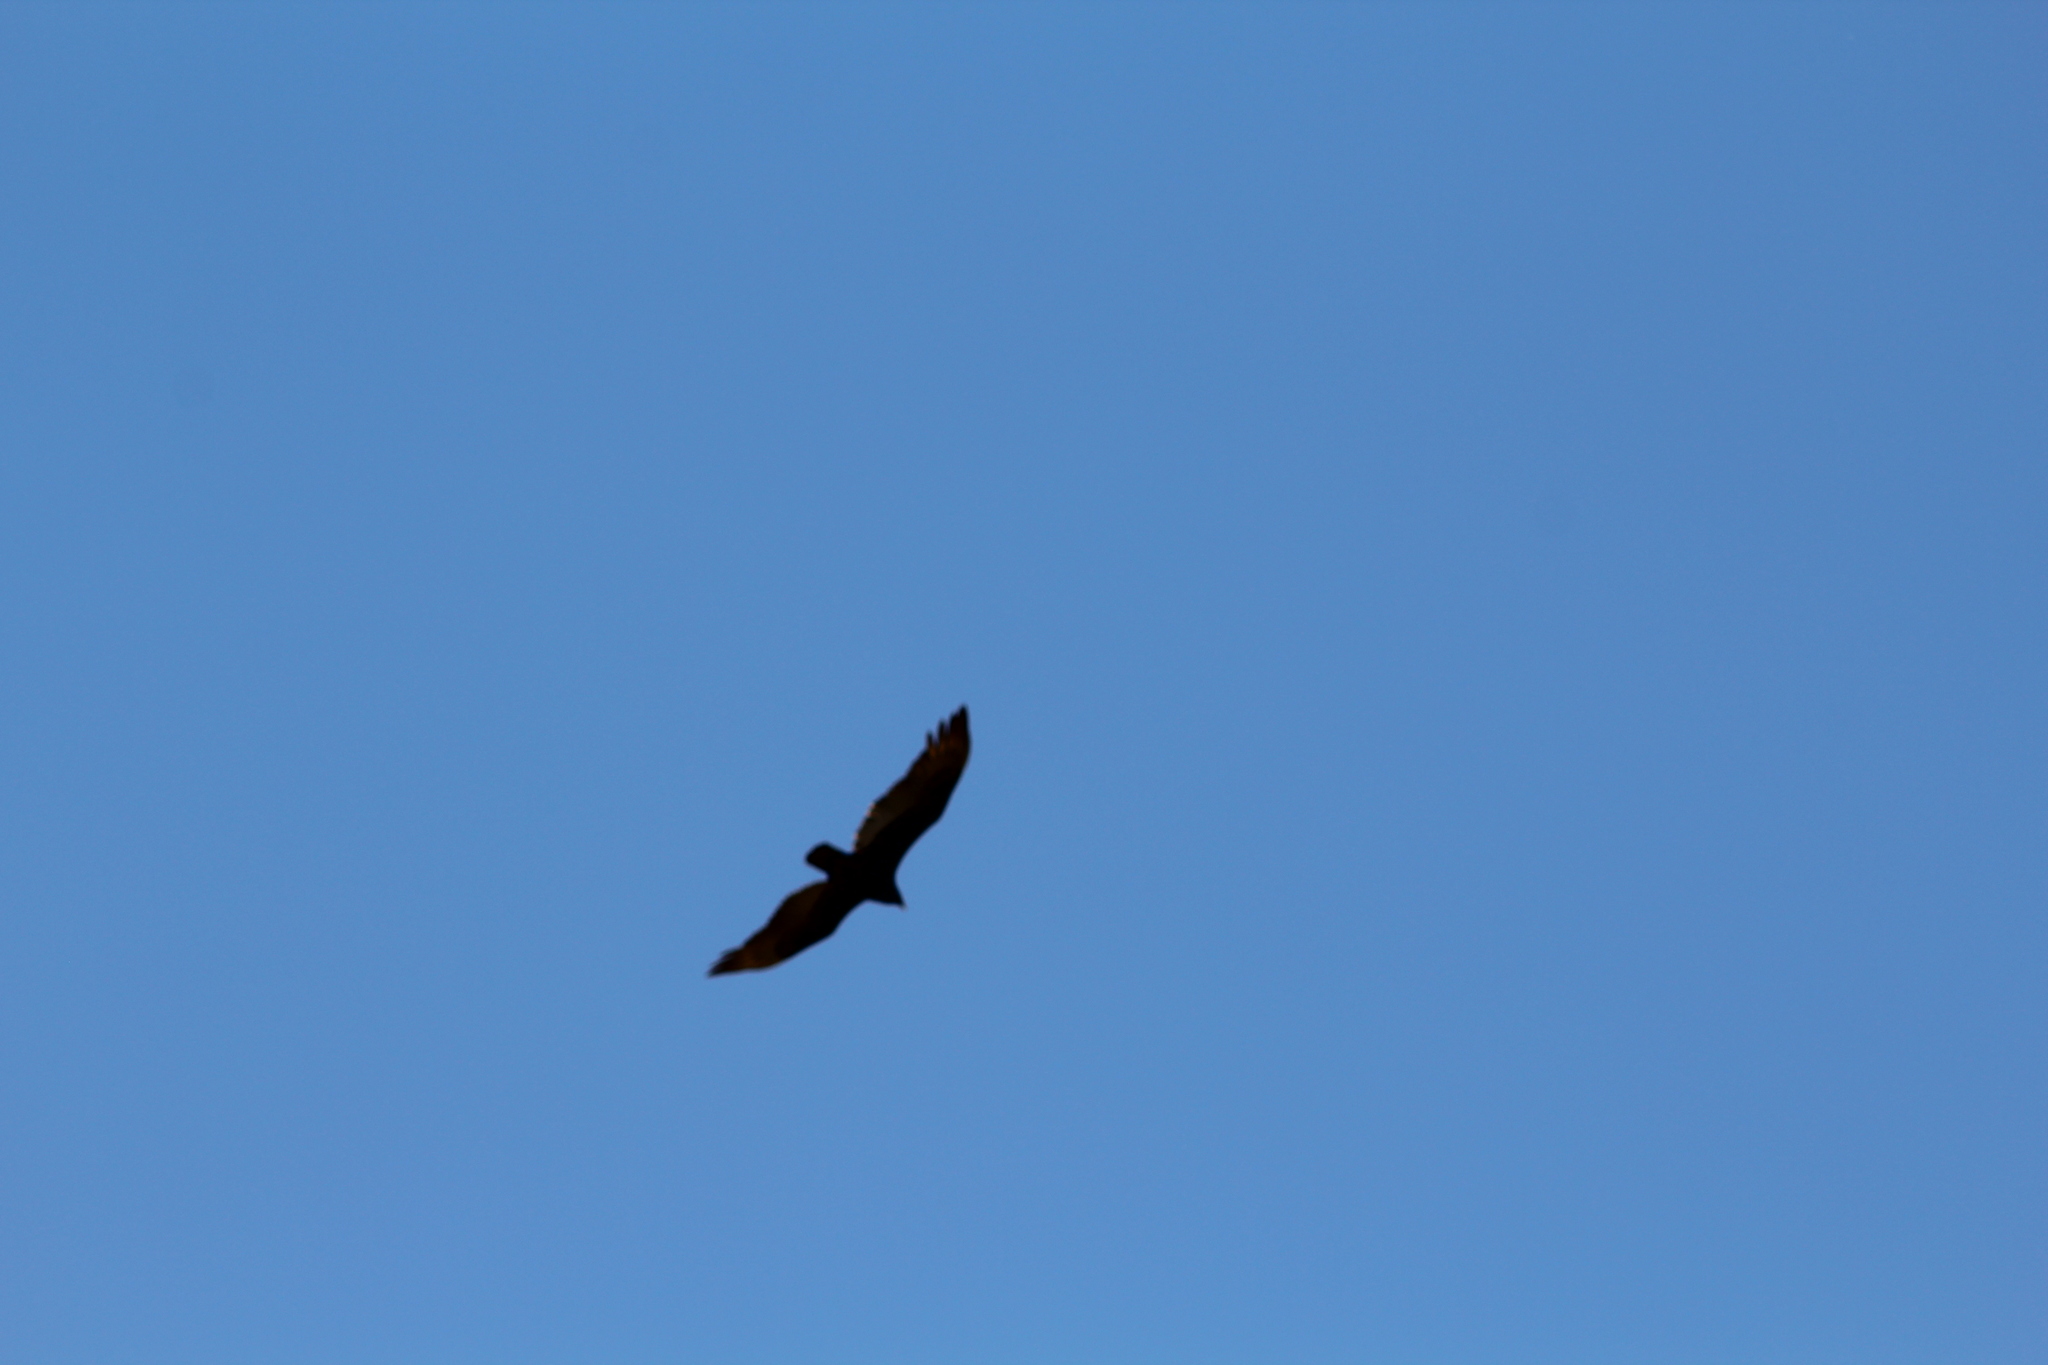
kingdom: Animalia
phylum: Chordata
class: Aves
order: Accipitriformes
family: Cathartidae
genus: Cathartes
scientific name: Cathartes aura
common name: Turkey vulture
